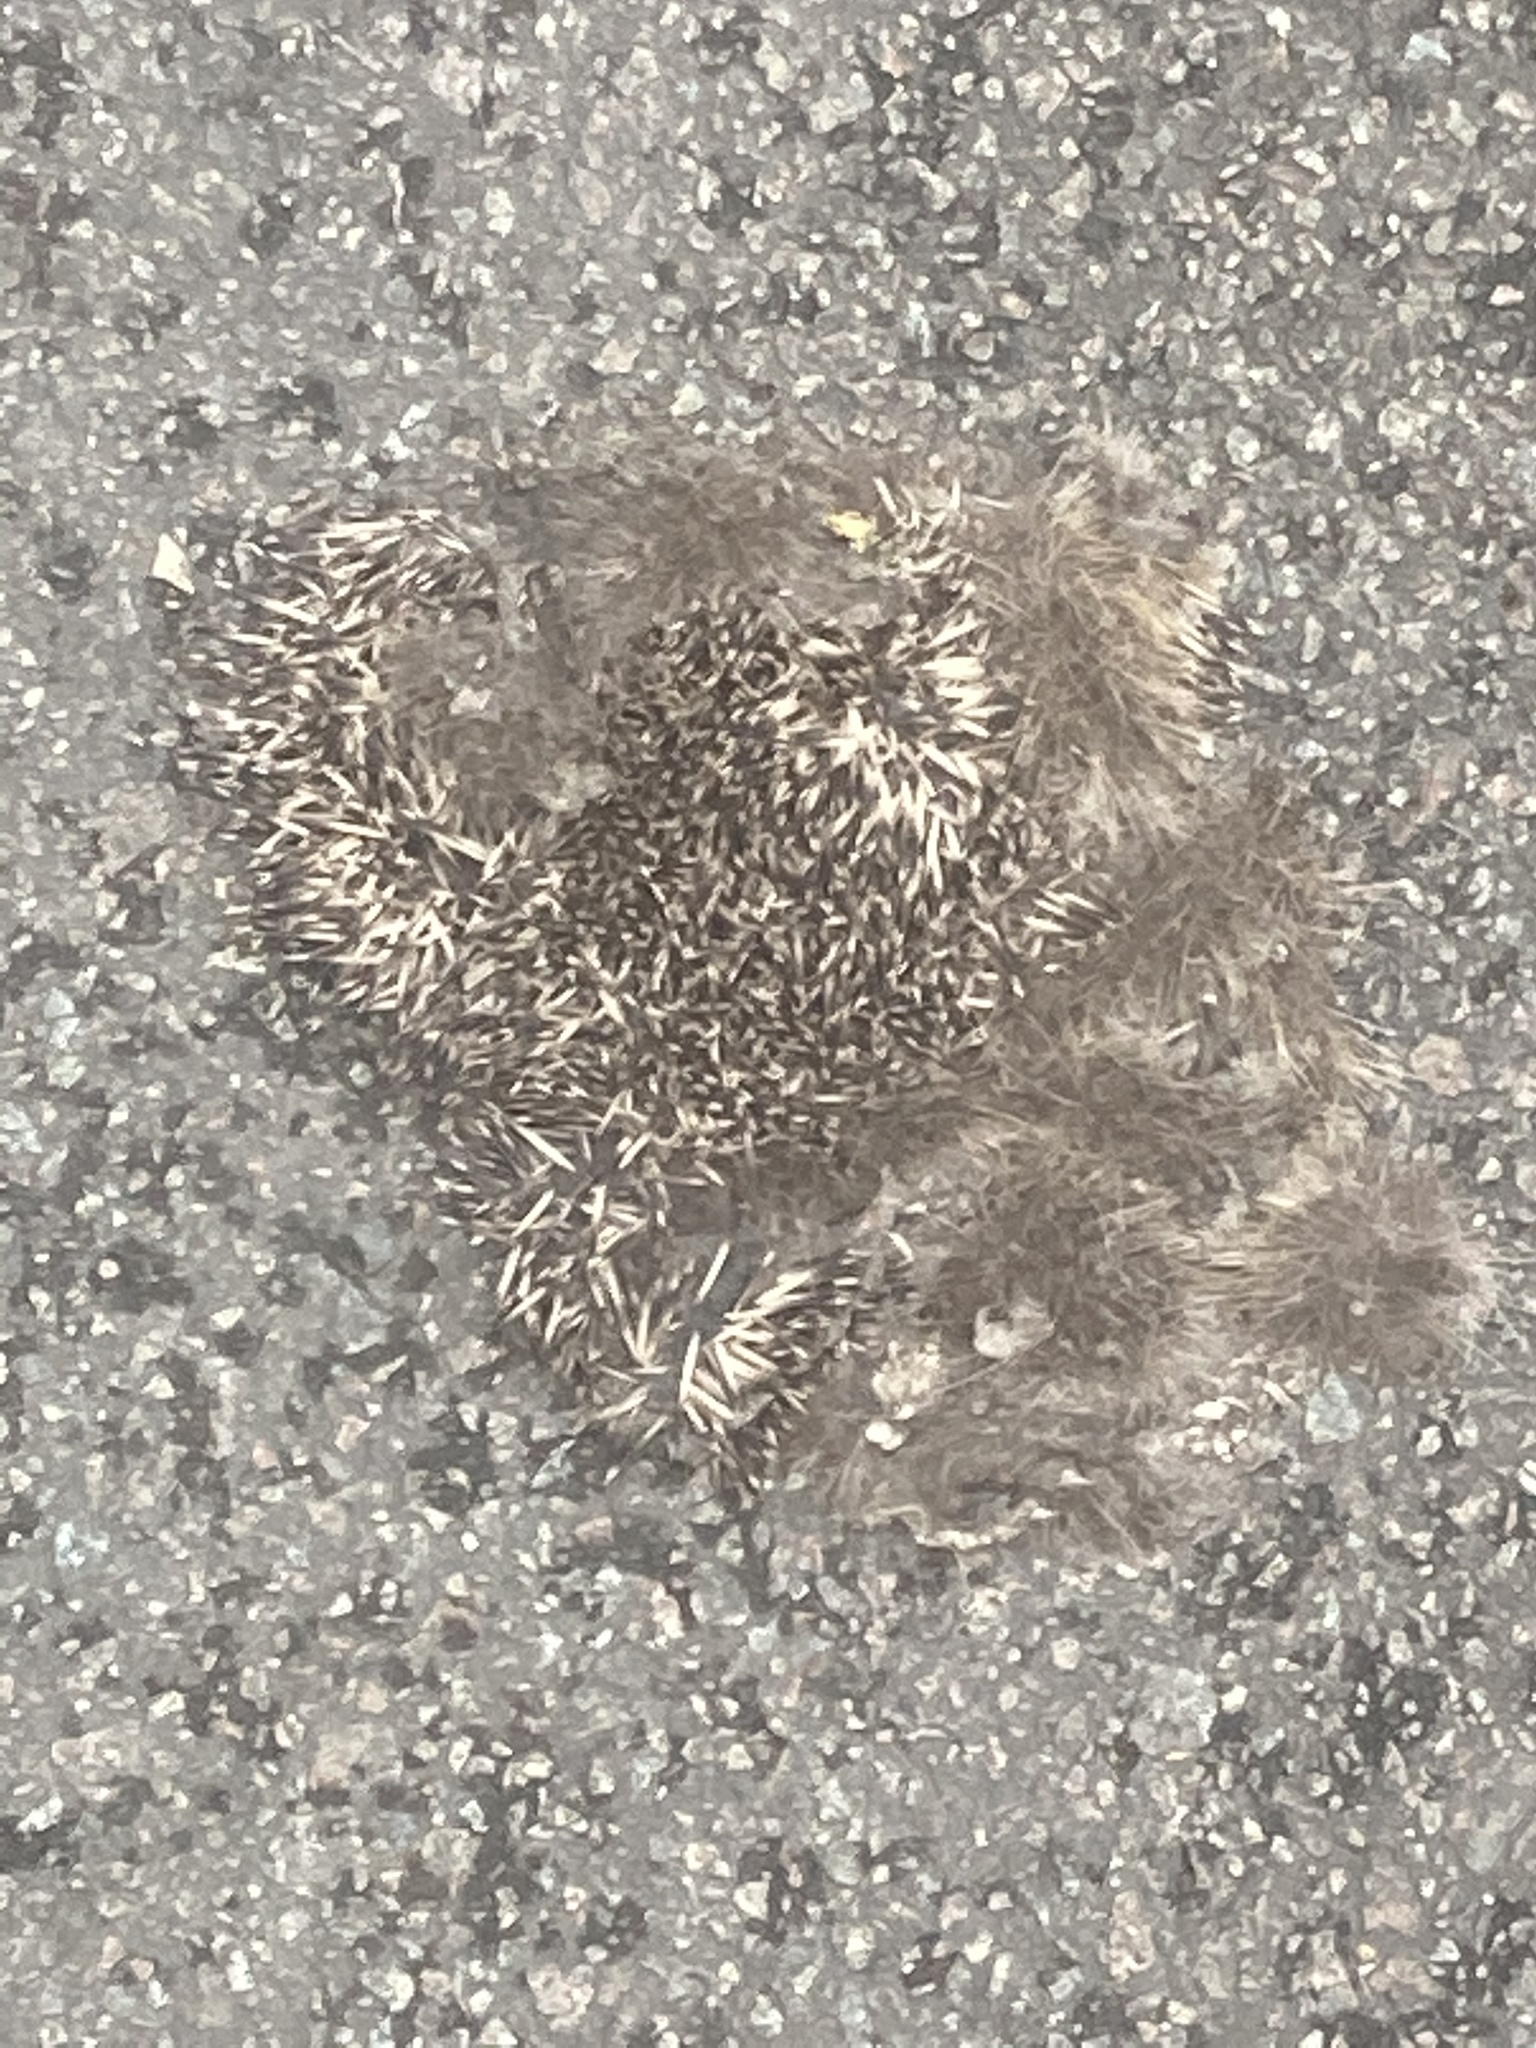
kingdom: Animalia
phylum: Chordata
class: Mammalia
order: Erinaceomorpha
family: Erinaceidae
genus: Erinaceus
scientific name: Erinaceus europaeus
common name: West european hedgehog
